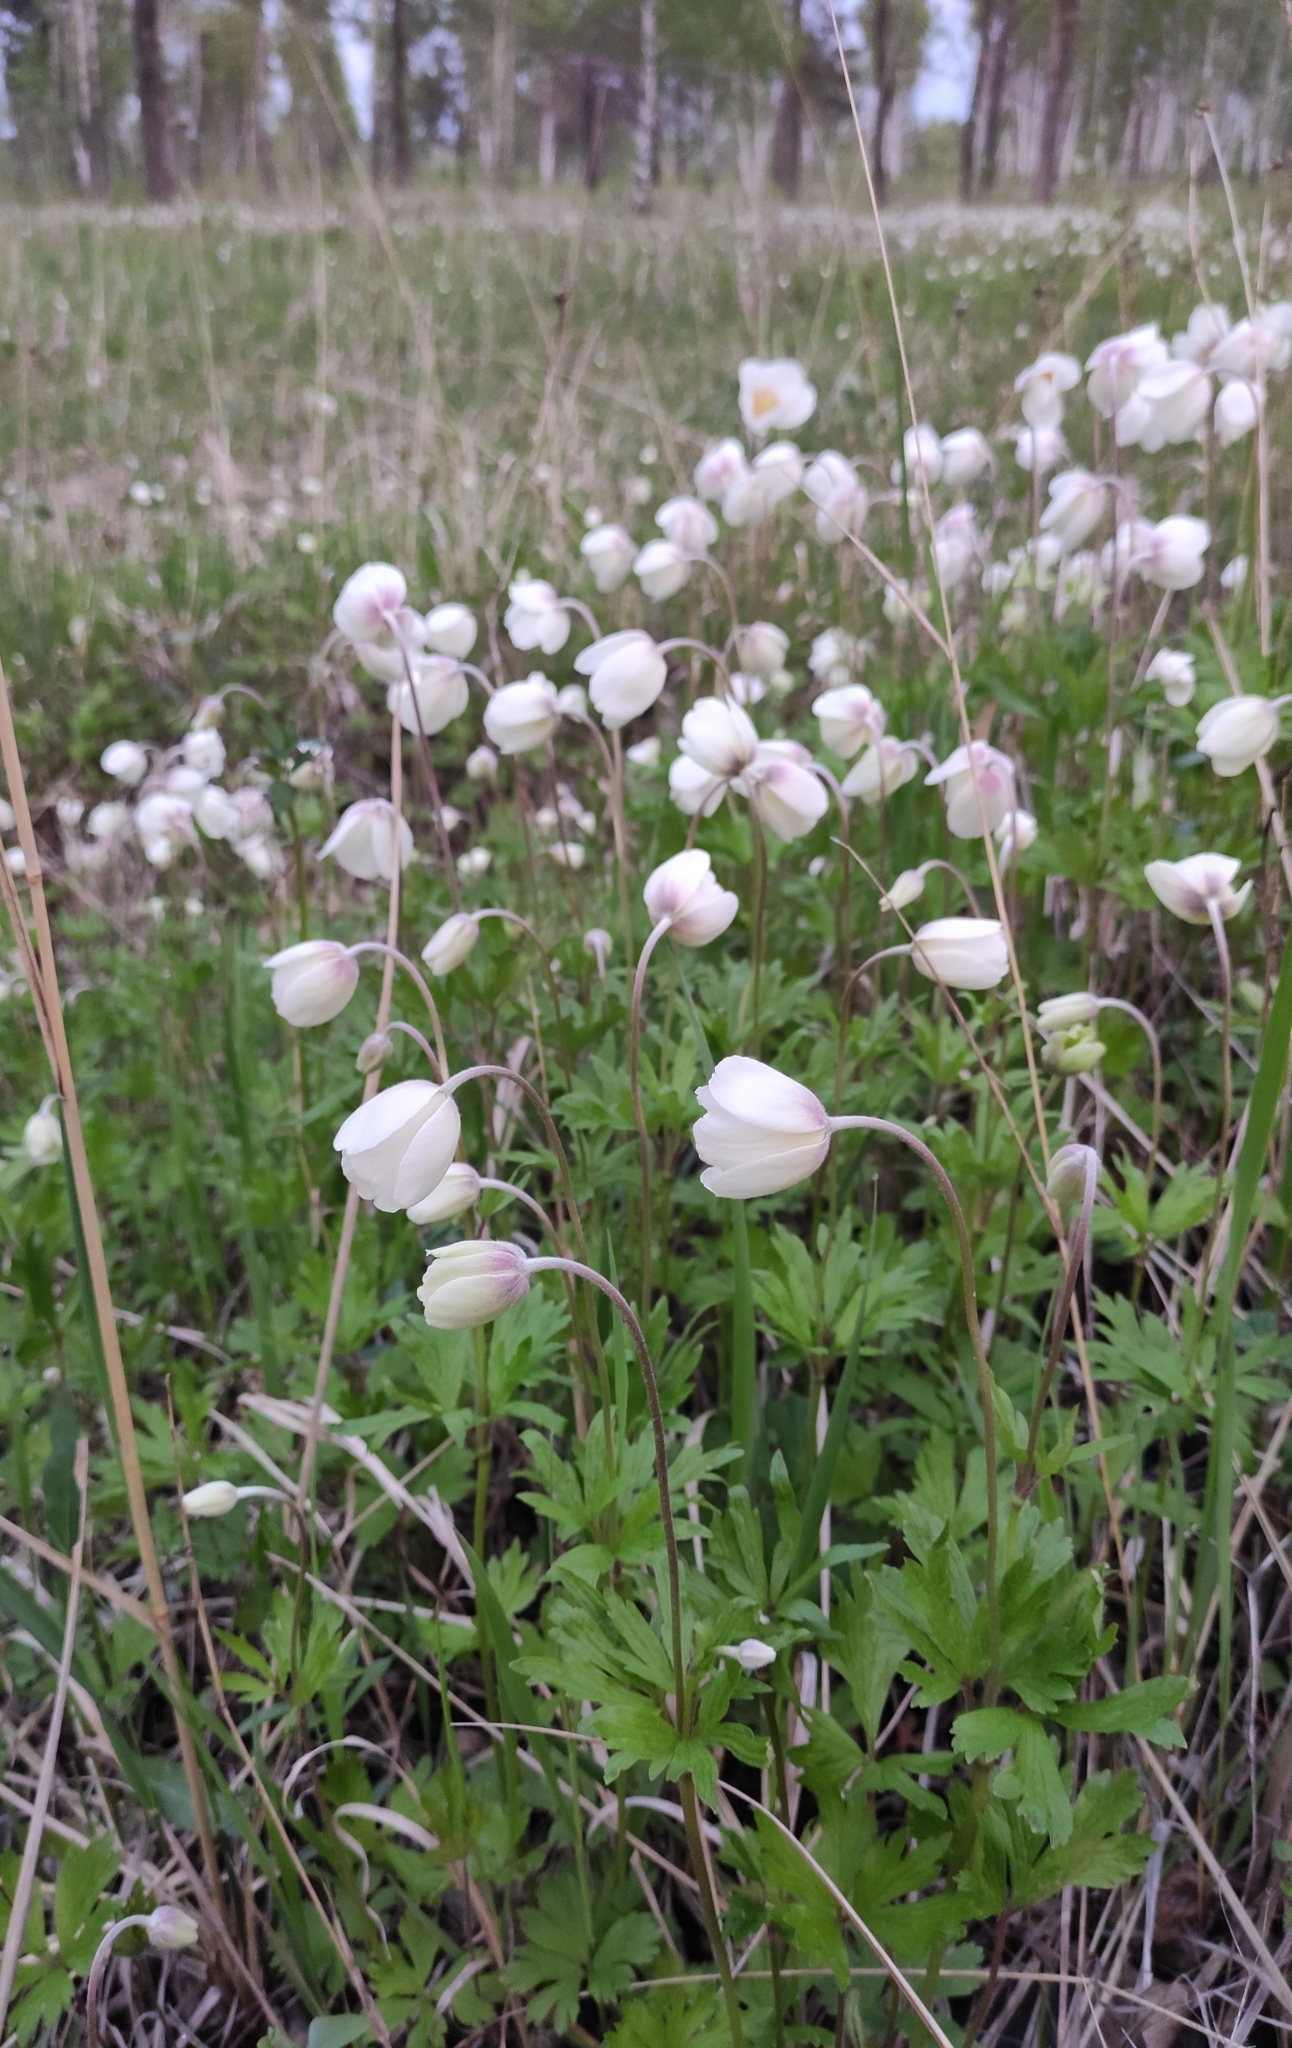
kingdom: Plantae
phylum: Tracheophyta
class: Magnoliopsida
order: Ranunculales
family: Ranunculaceae
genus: Anemone
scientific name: Anemone sylvestris
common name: Snowdrop anemone
